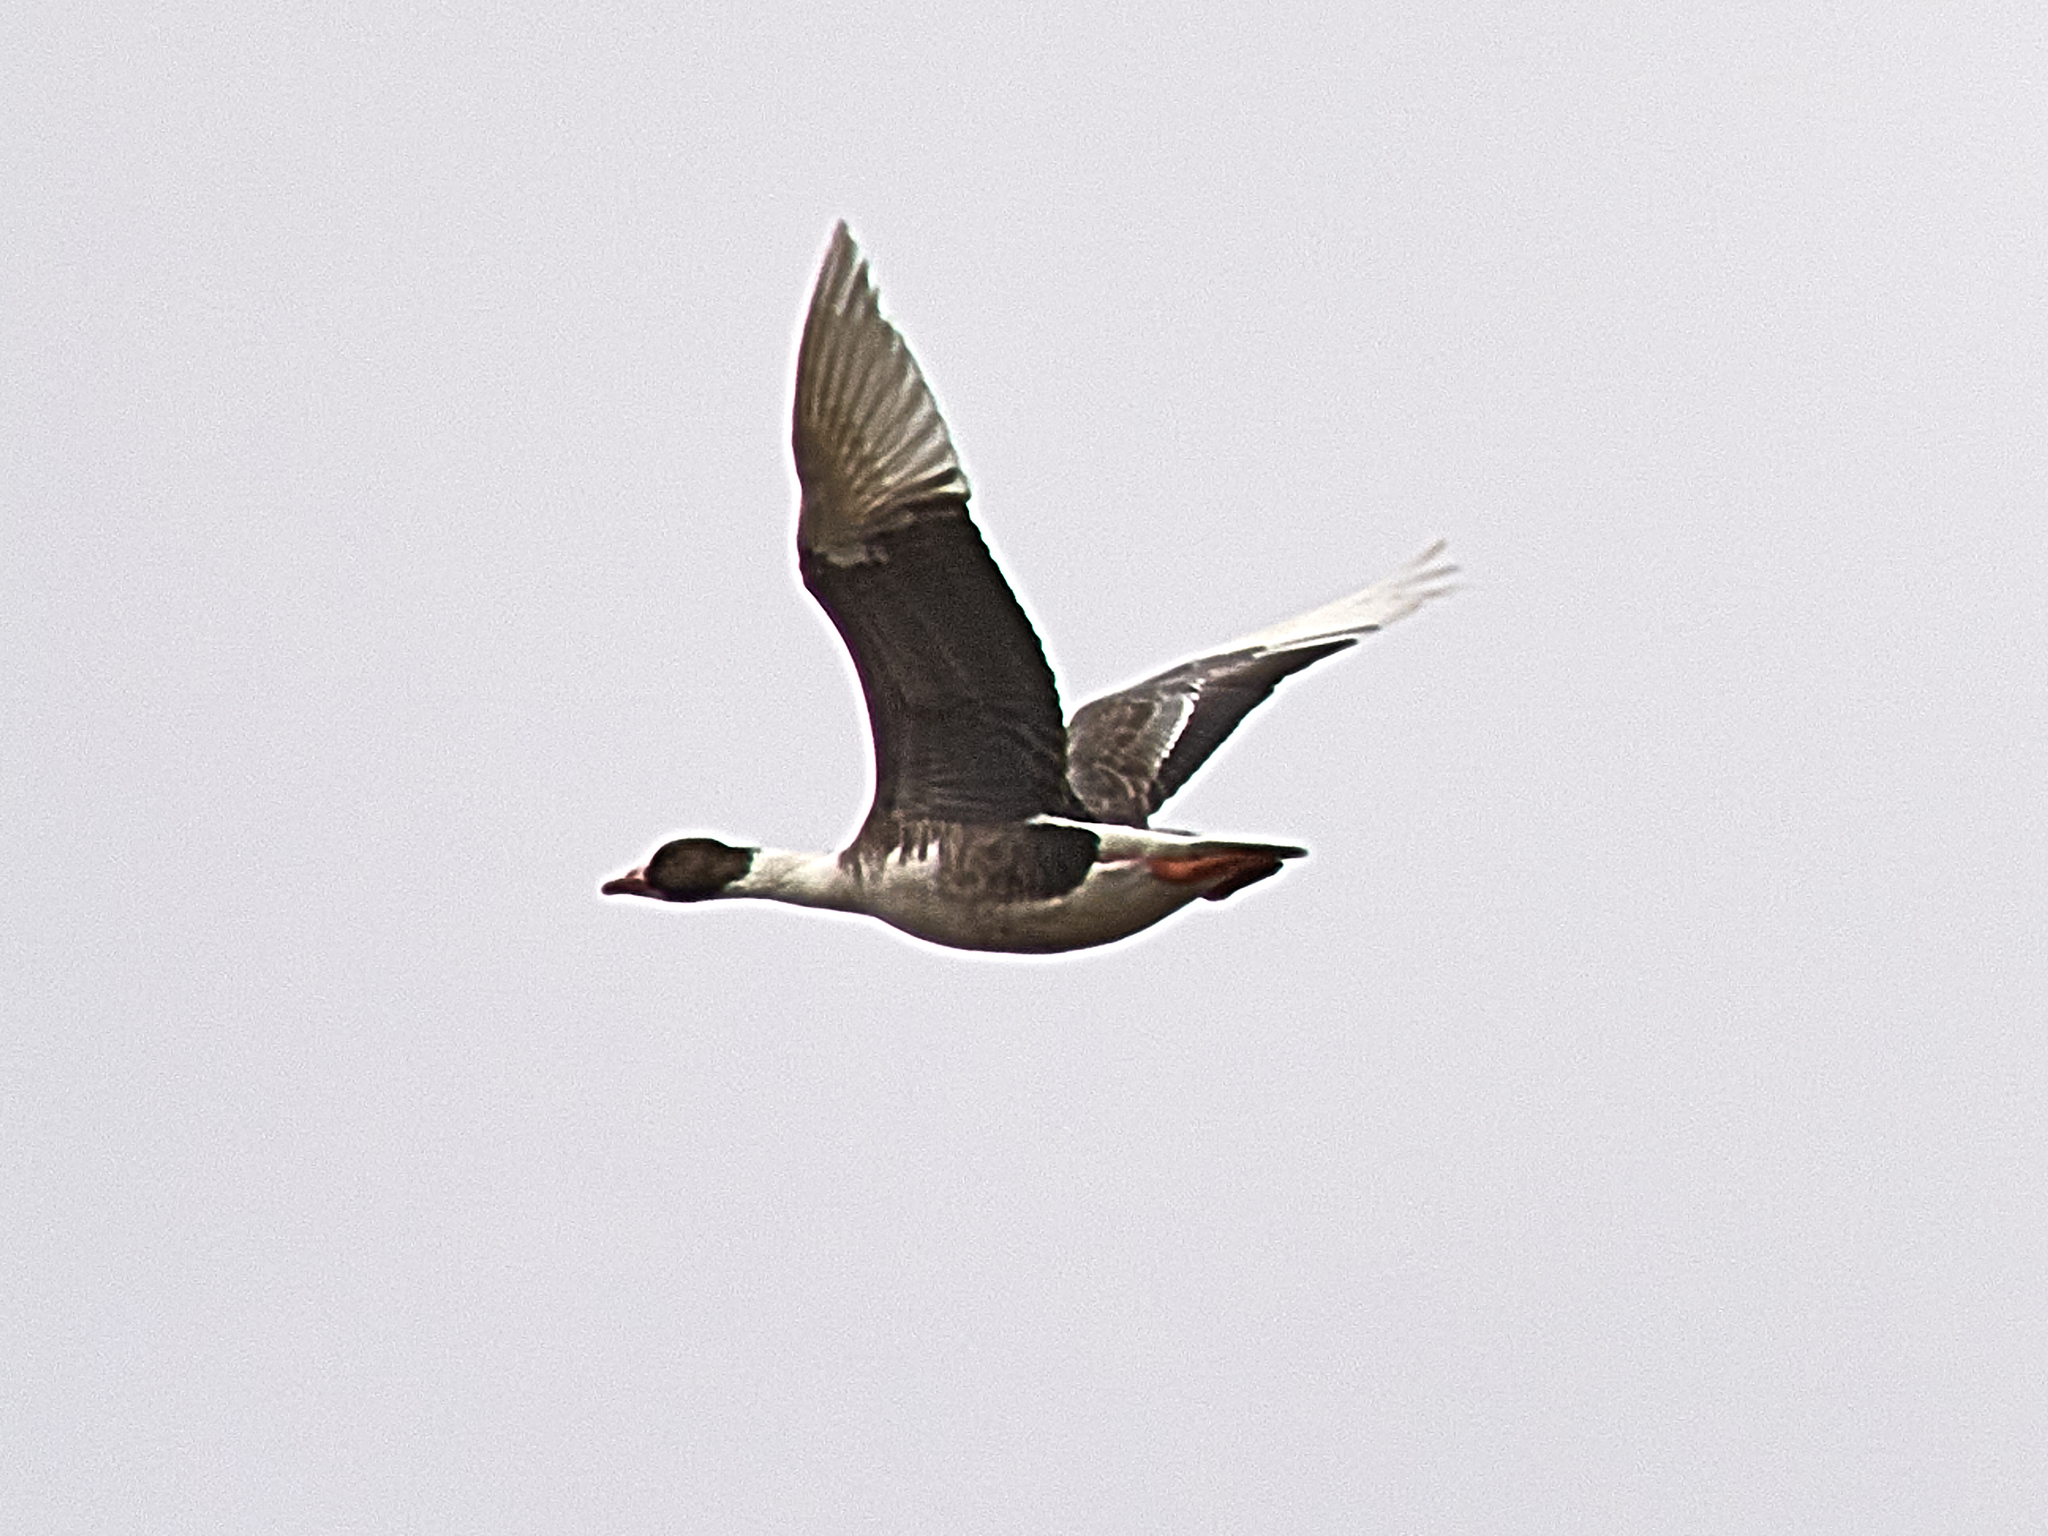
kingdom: Animalia
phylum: Chordata
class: Aves
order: Anseriformes
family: Anatidae
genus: Anser
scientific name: Anser albifrons
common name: Greater white-fronted goose
